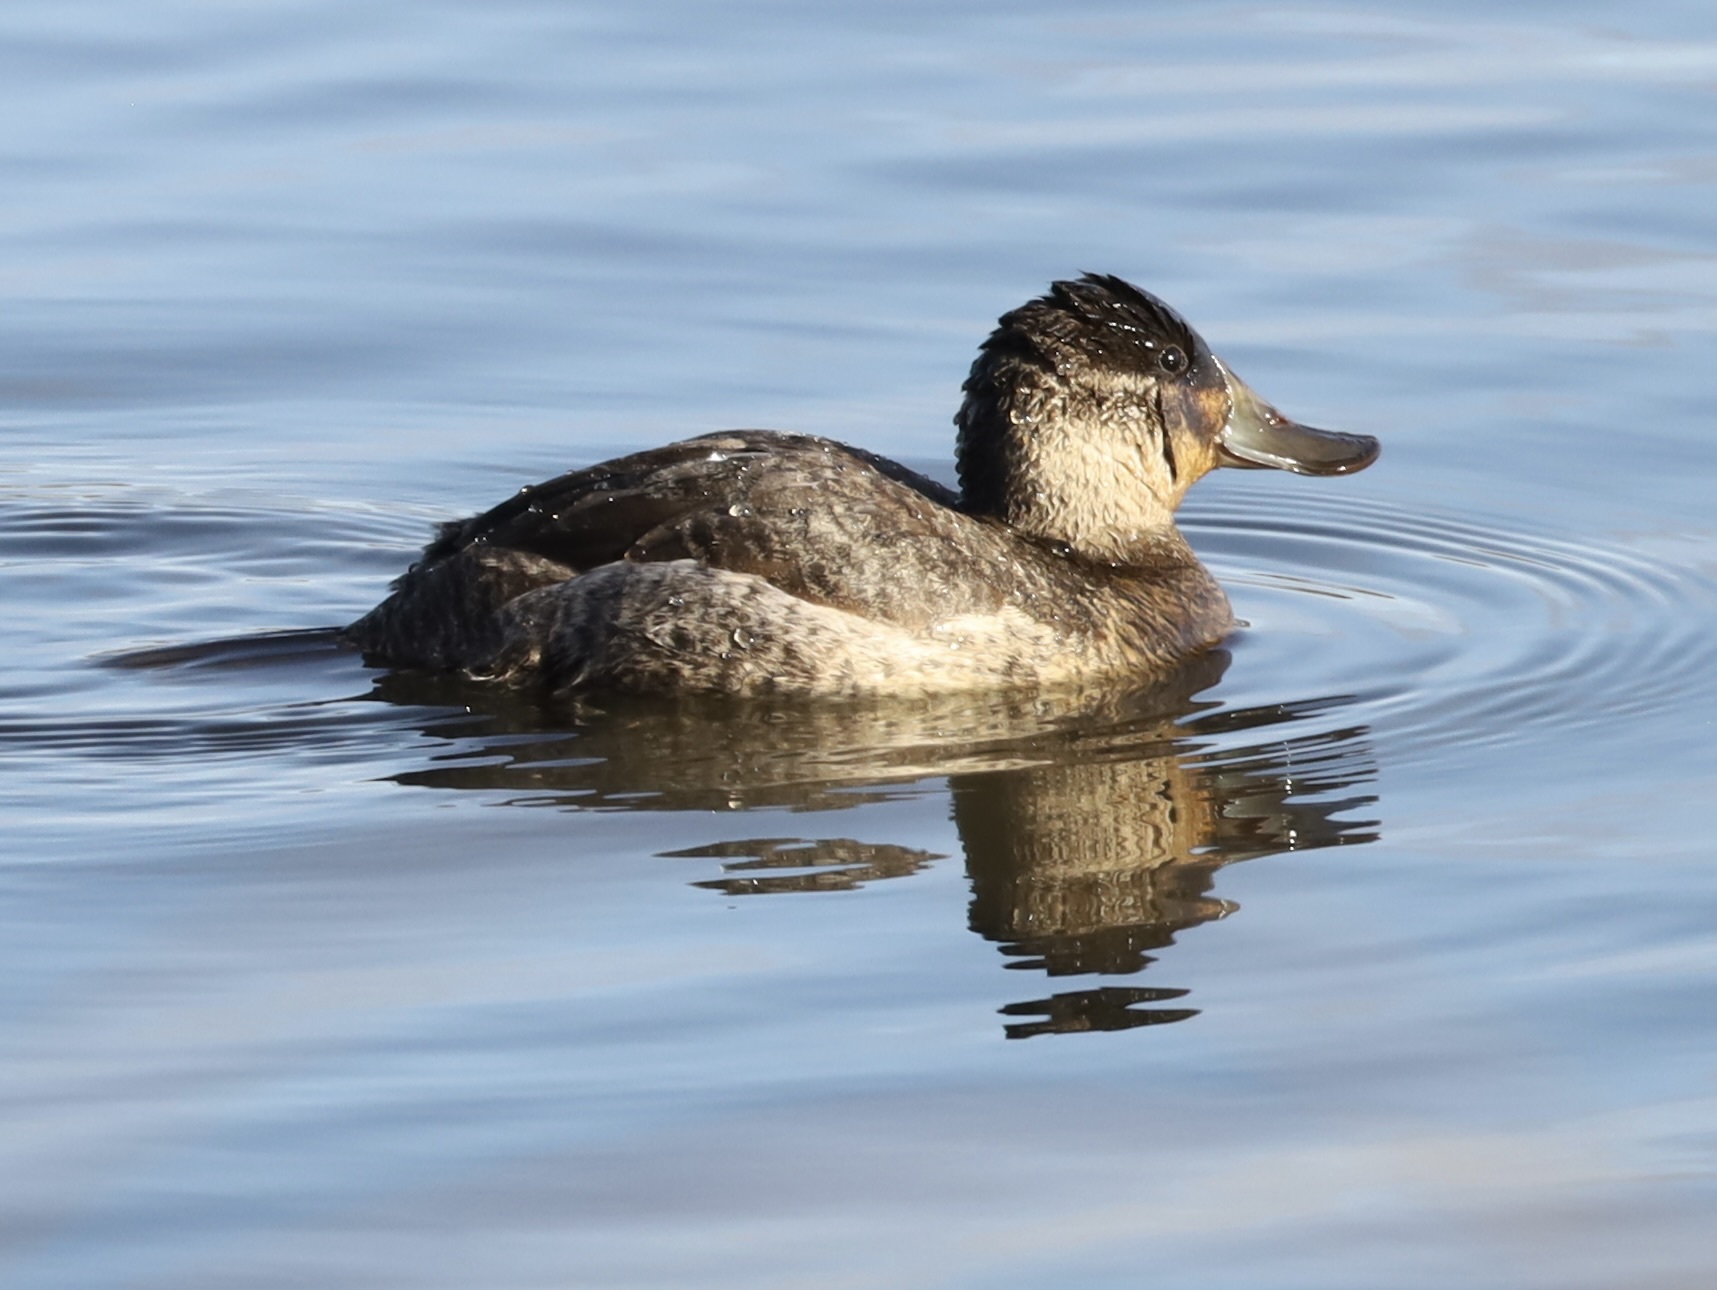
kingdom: Animalia
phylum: Chordata
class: Aves
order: Anseriformes
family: Anatidae
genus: Oxyura
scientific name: Oxyura jamaicensis
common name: Ruddy duck
